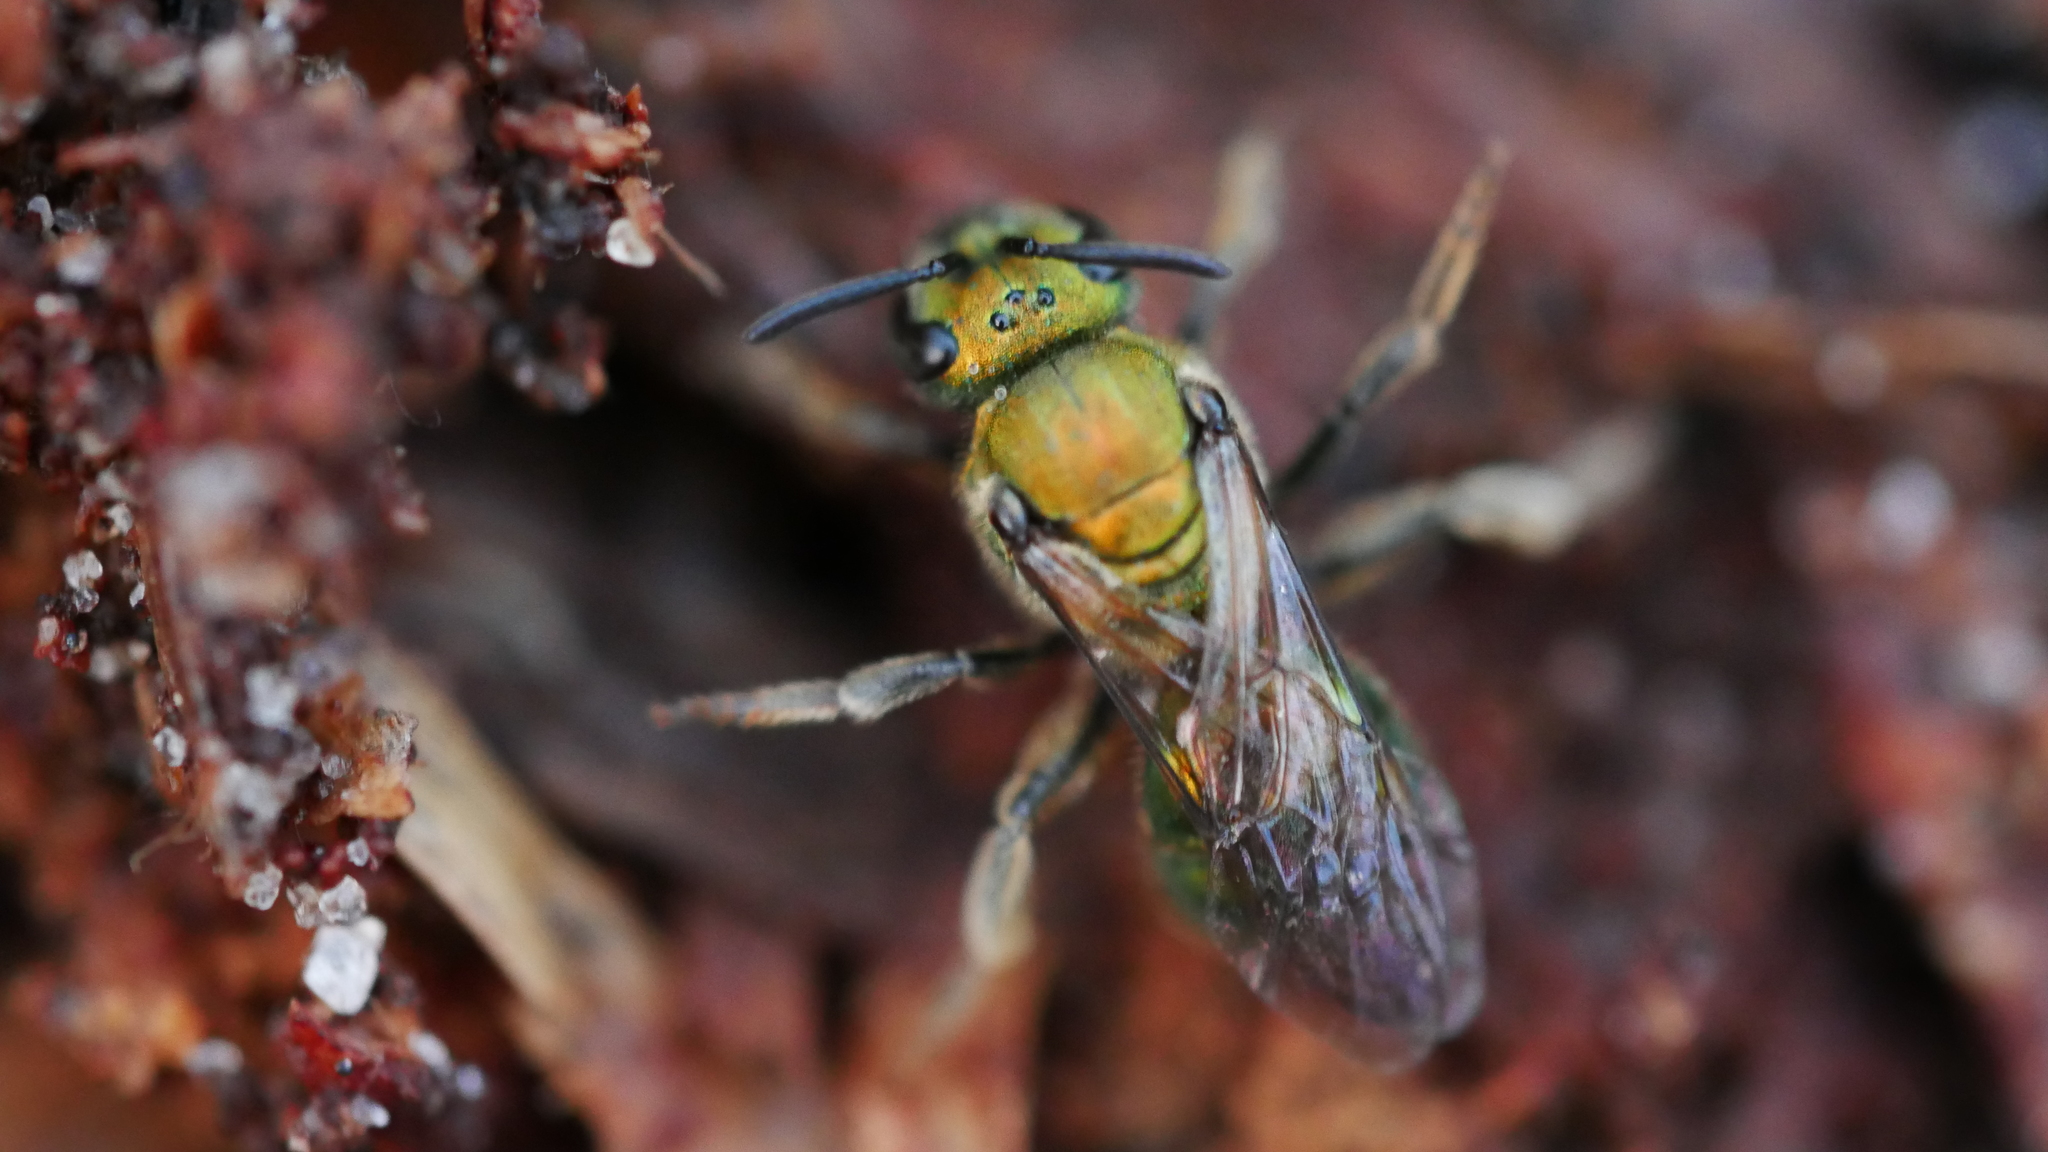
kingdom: Animalia
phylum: Arthropoda
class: Insecta
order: Hymenoptera
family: Halictidae
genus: Augochlora
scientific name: Augochlora pura
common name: Pure green sweat bee
